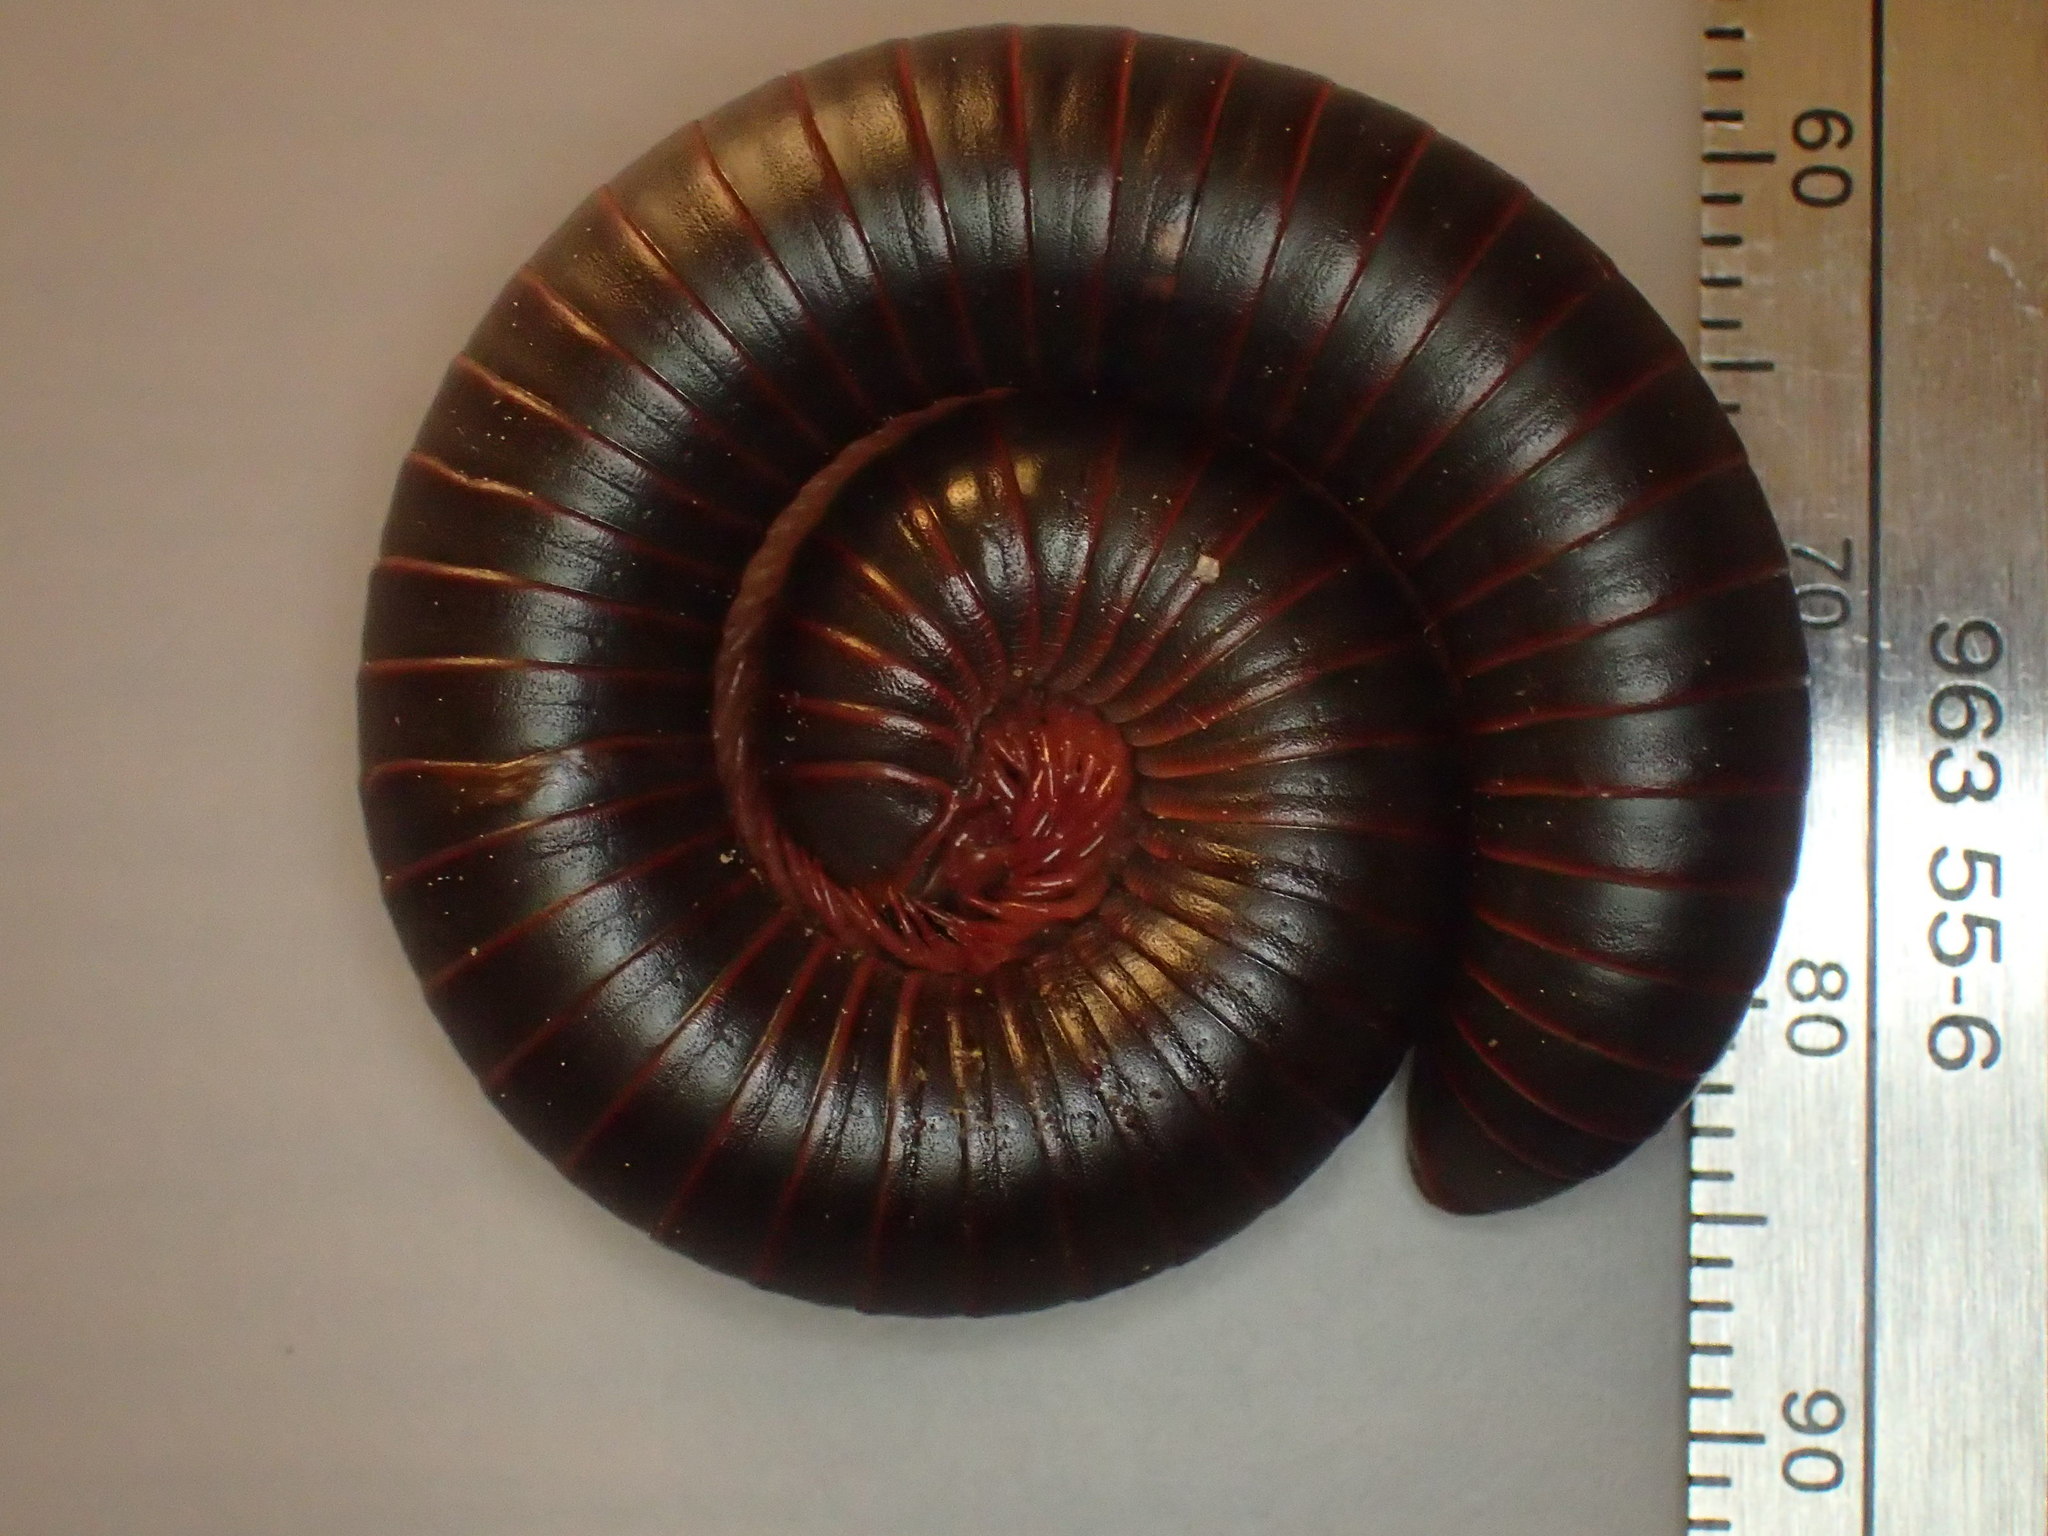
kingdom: Animalia
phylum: Arthropoda
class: Diplopoda
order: Spirobolida
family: Spirobolidae
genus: Narceus
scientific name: Narceus
